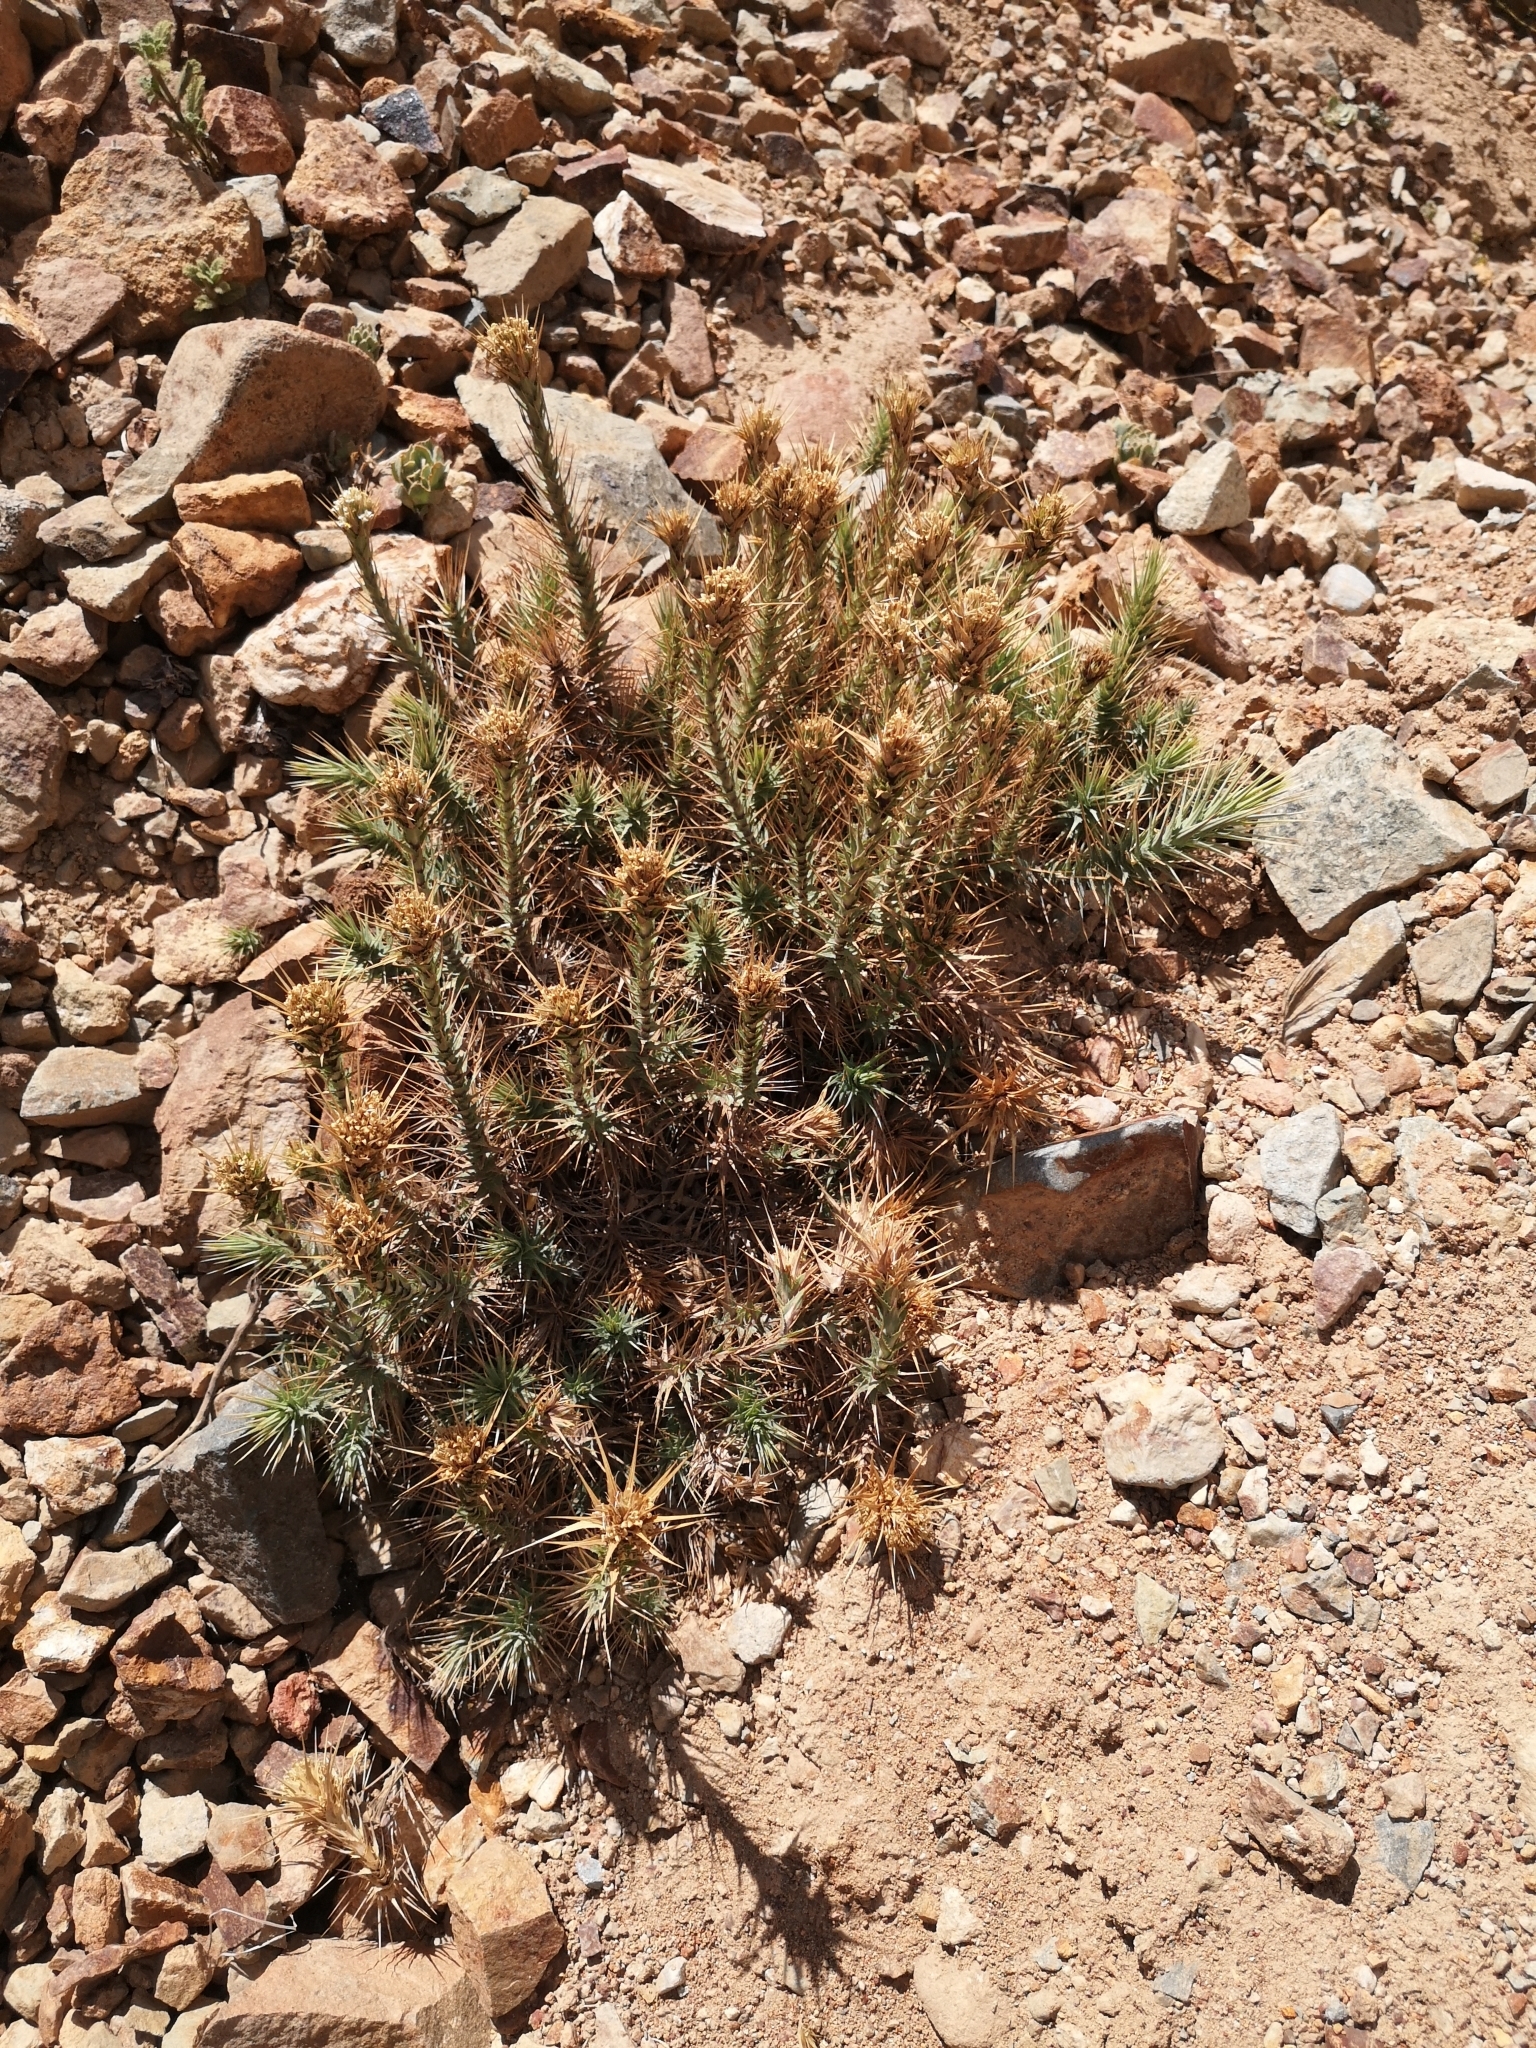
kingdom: Plantae
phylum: Tracheophyta
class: Magnoliopsida
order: Asterales
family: Asteraceae
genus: Nassauvia
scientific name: Nassauvia cumingii
